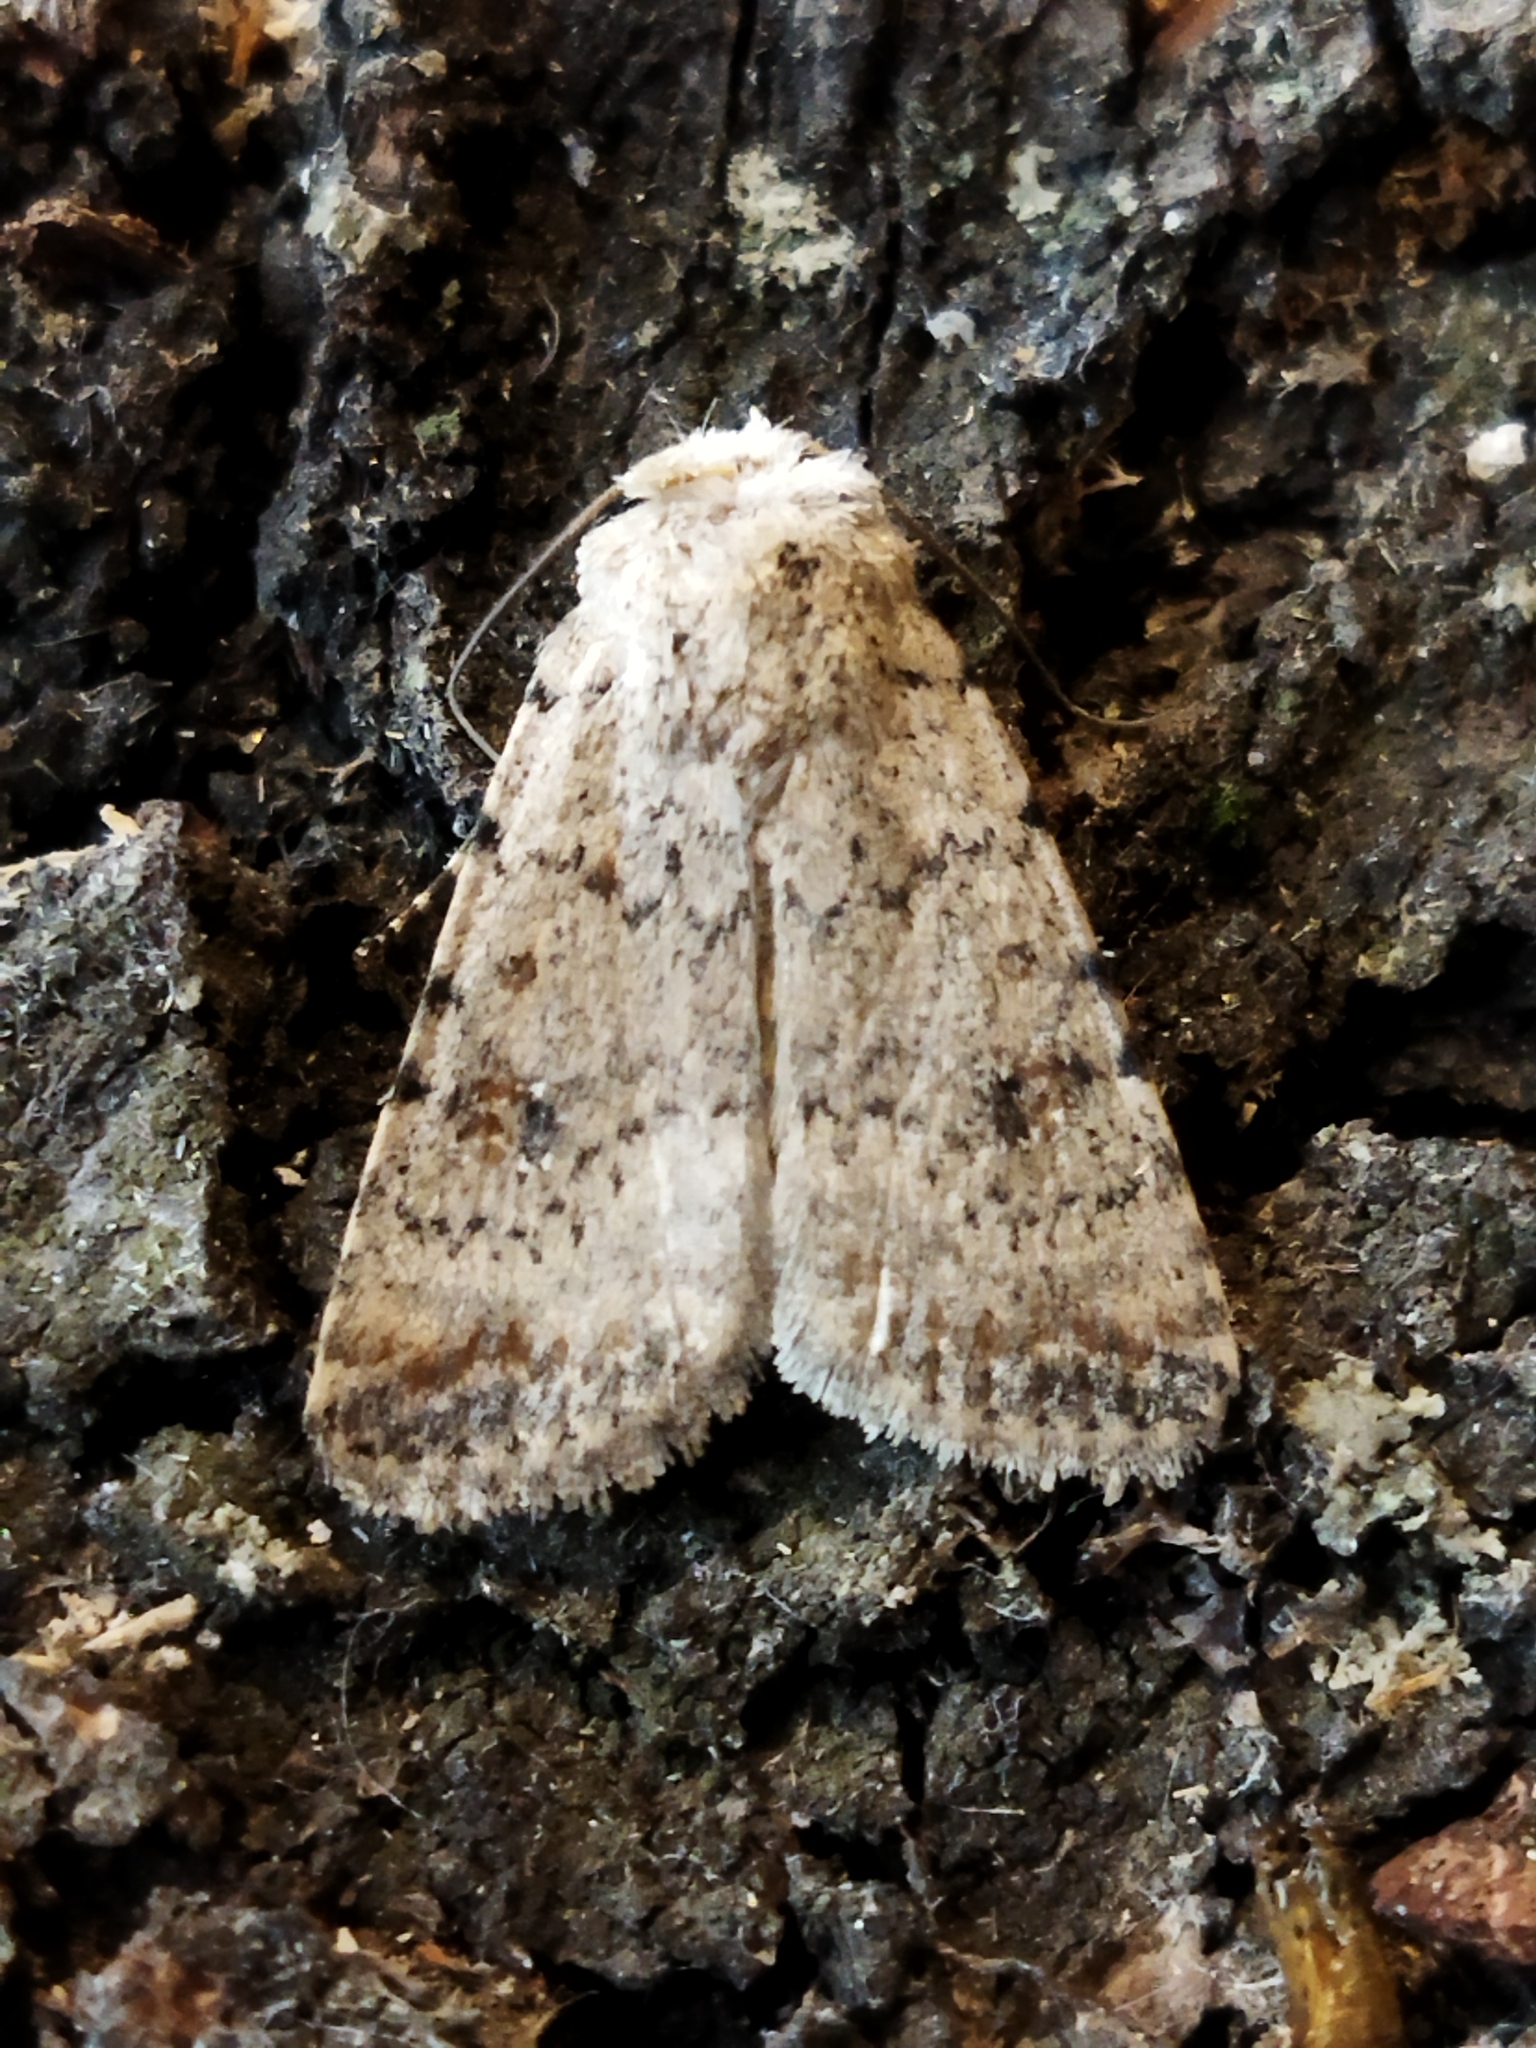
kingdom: Animalia
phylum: Arthropoda
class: Insecta
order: Lepidoptera
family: Noctuidae
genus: Caradrina
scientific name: Caradrina clavipalpis
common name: Pale mottled willow
